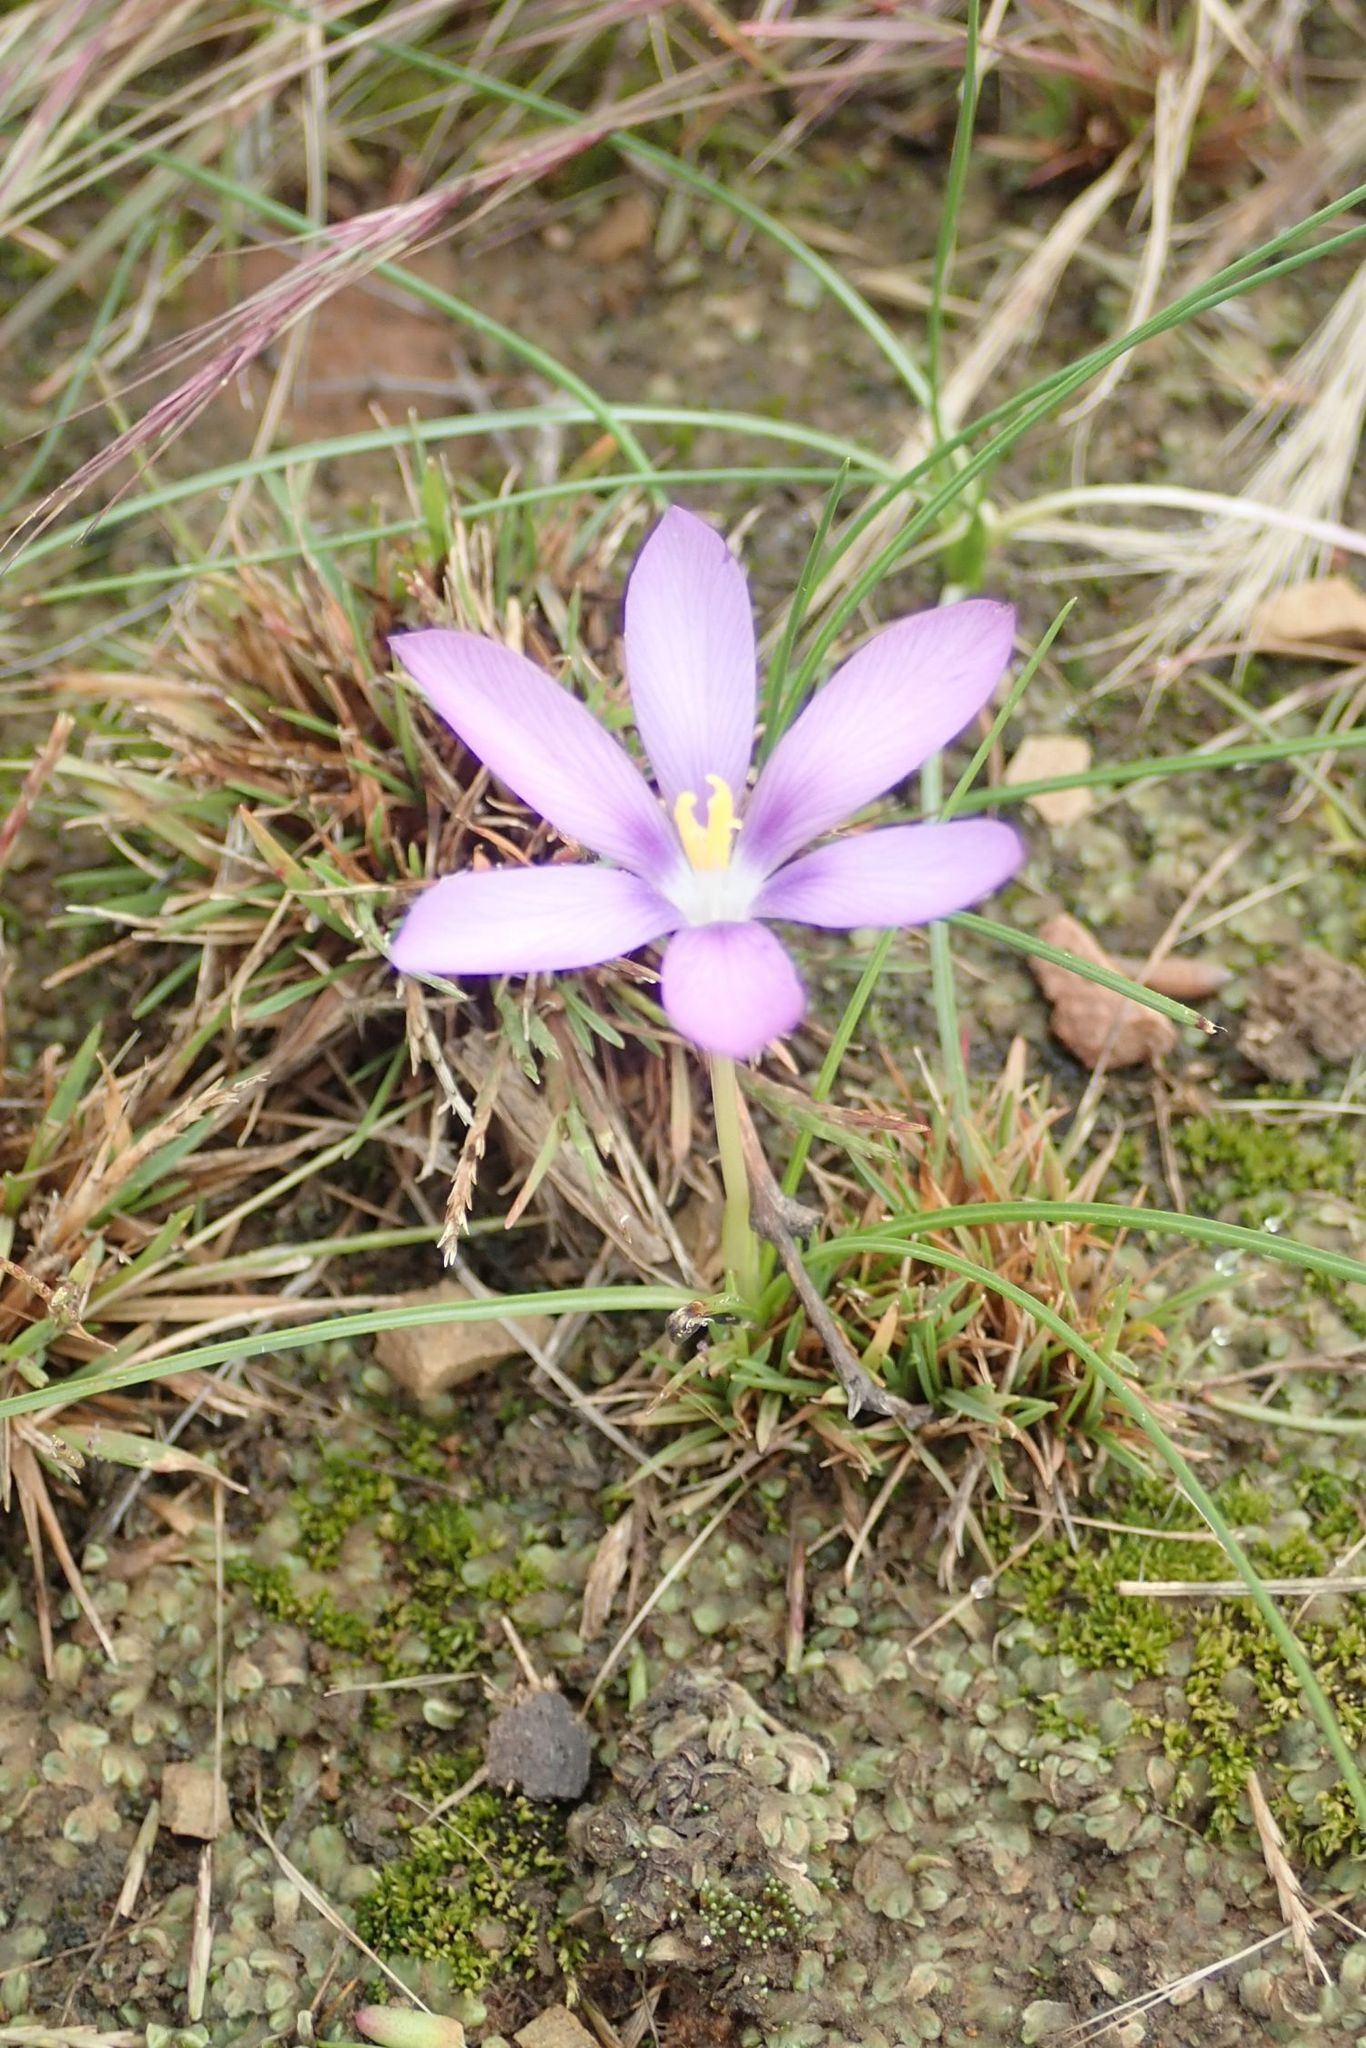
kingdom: Plantae
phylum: Tracheophyta
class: Liliopsida
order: Asparagales
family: Iridaceae
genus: Syringodea
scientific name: Syringodea concolor
